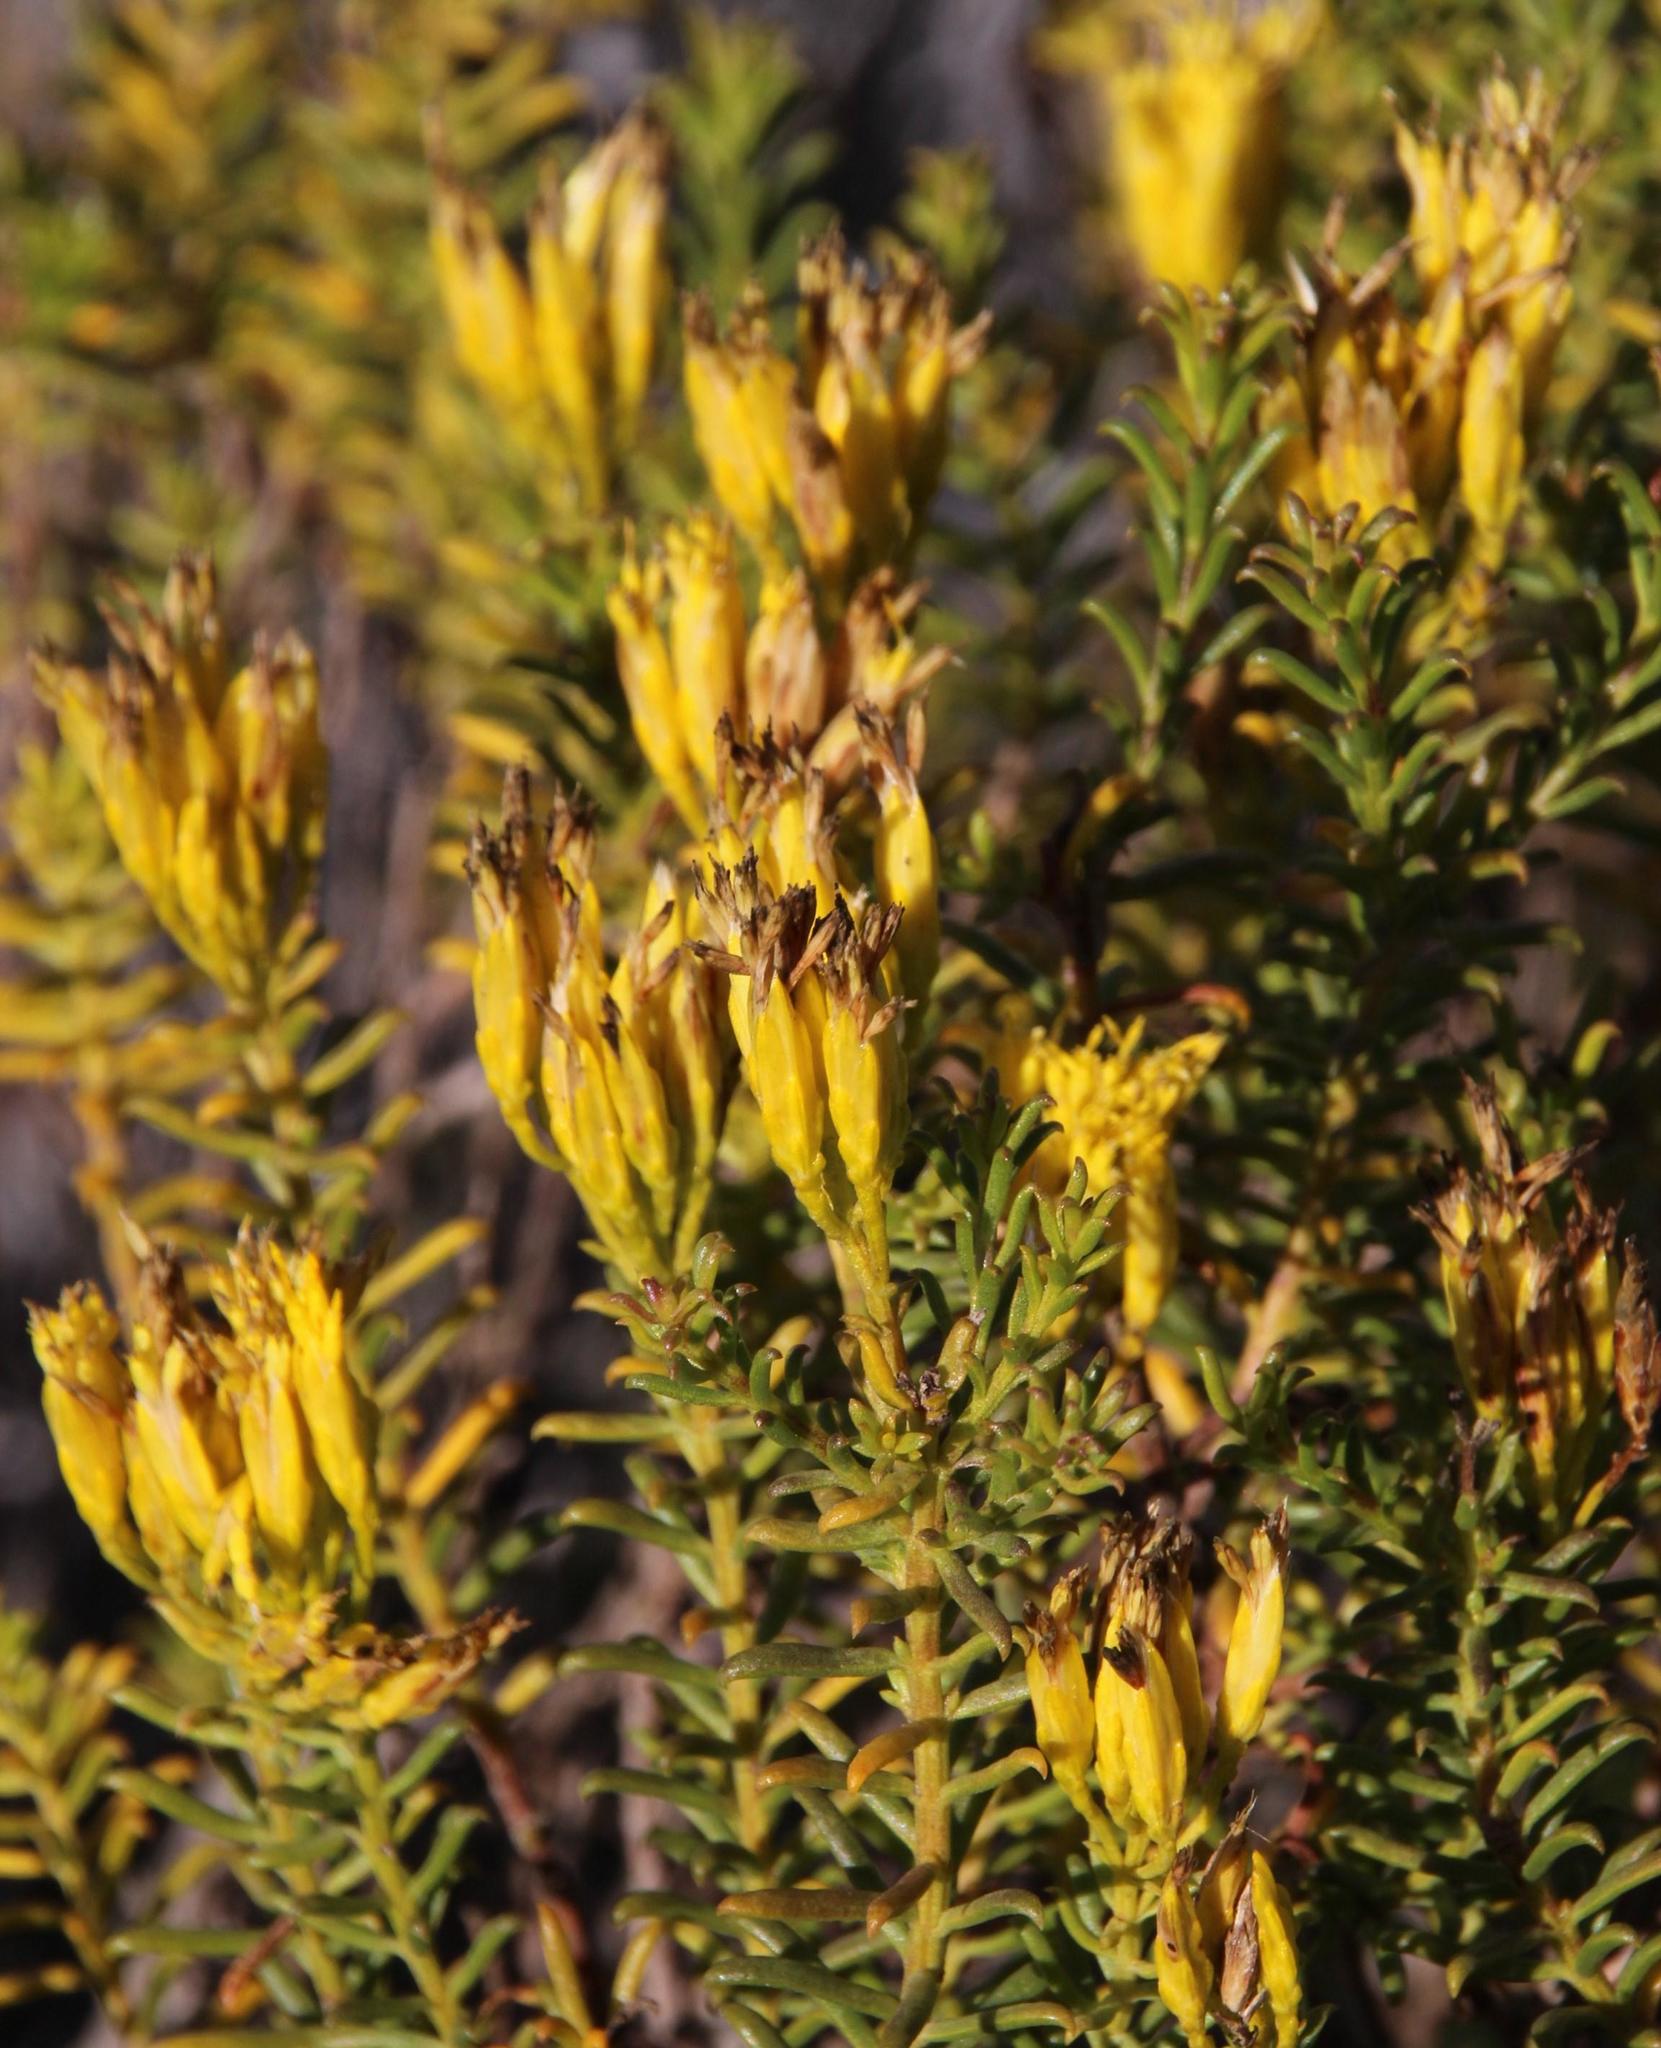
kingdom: Plantae
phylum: Tracheophyta
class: Magnoliopsida
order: Asterales
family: Asteraceae
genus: Pteronia
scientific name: Pteronia uncinata
